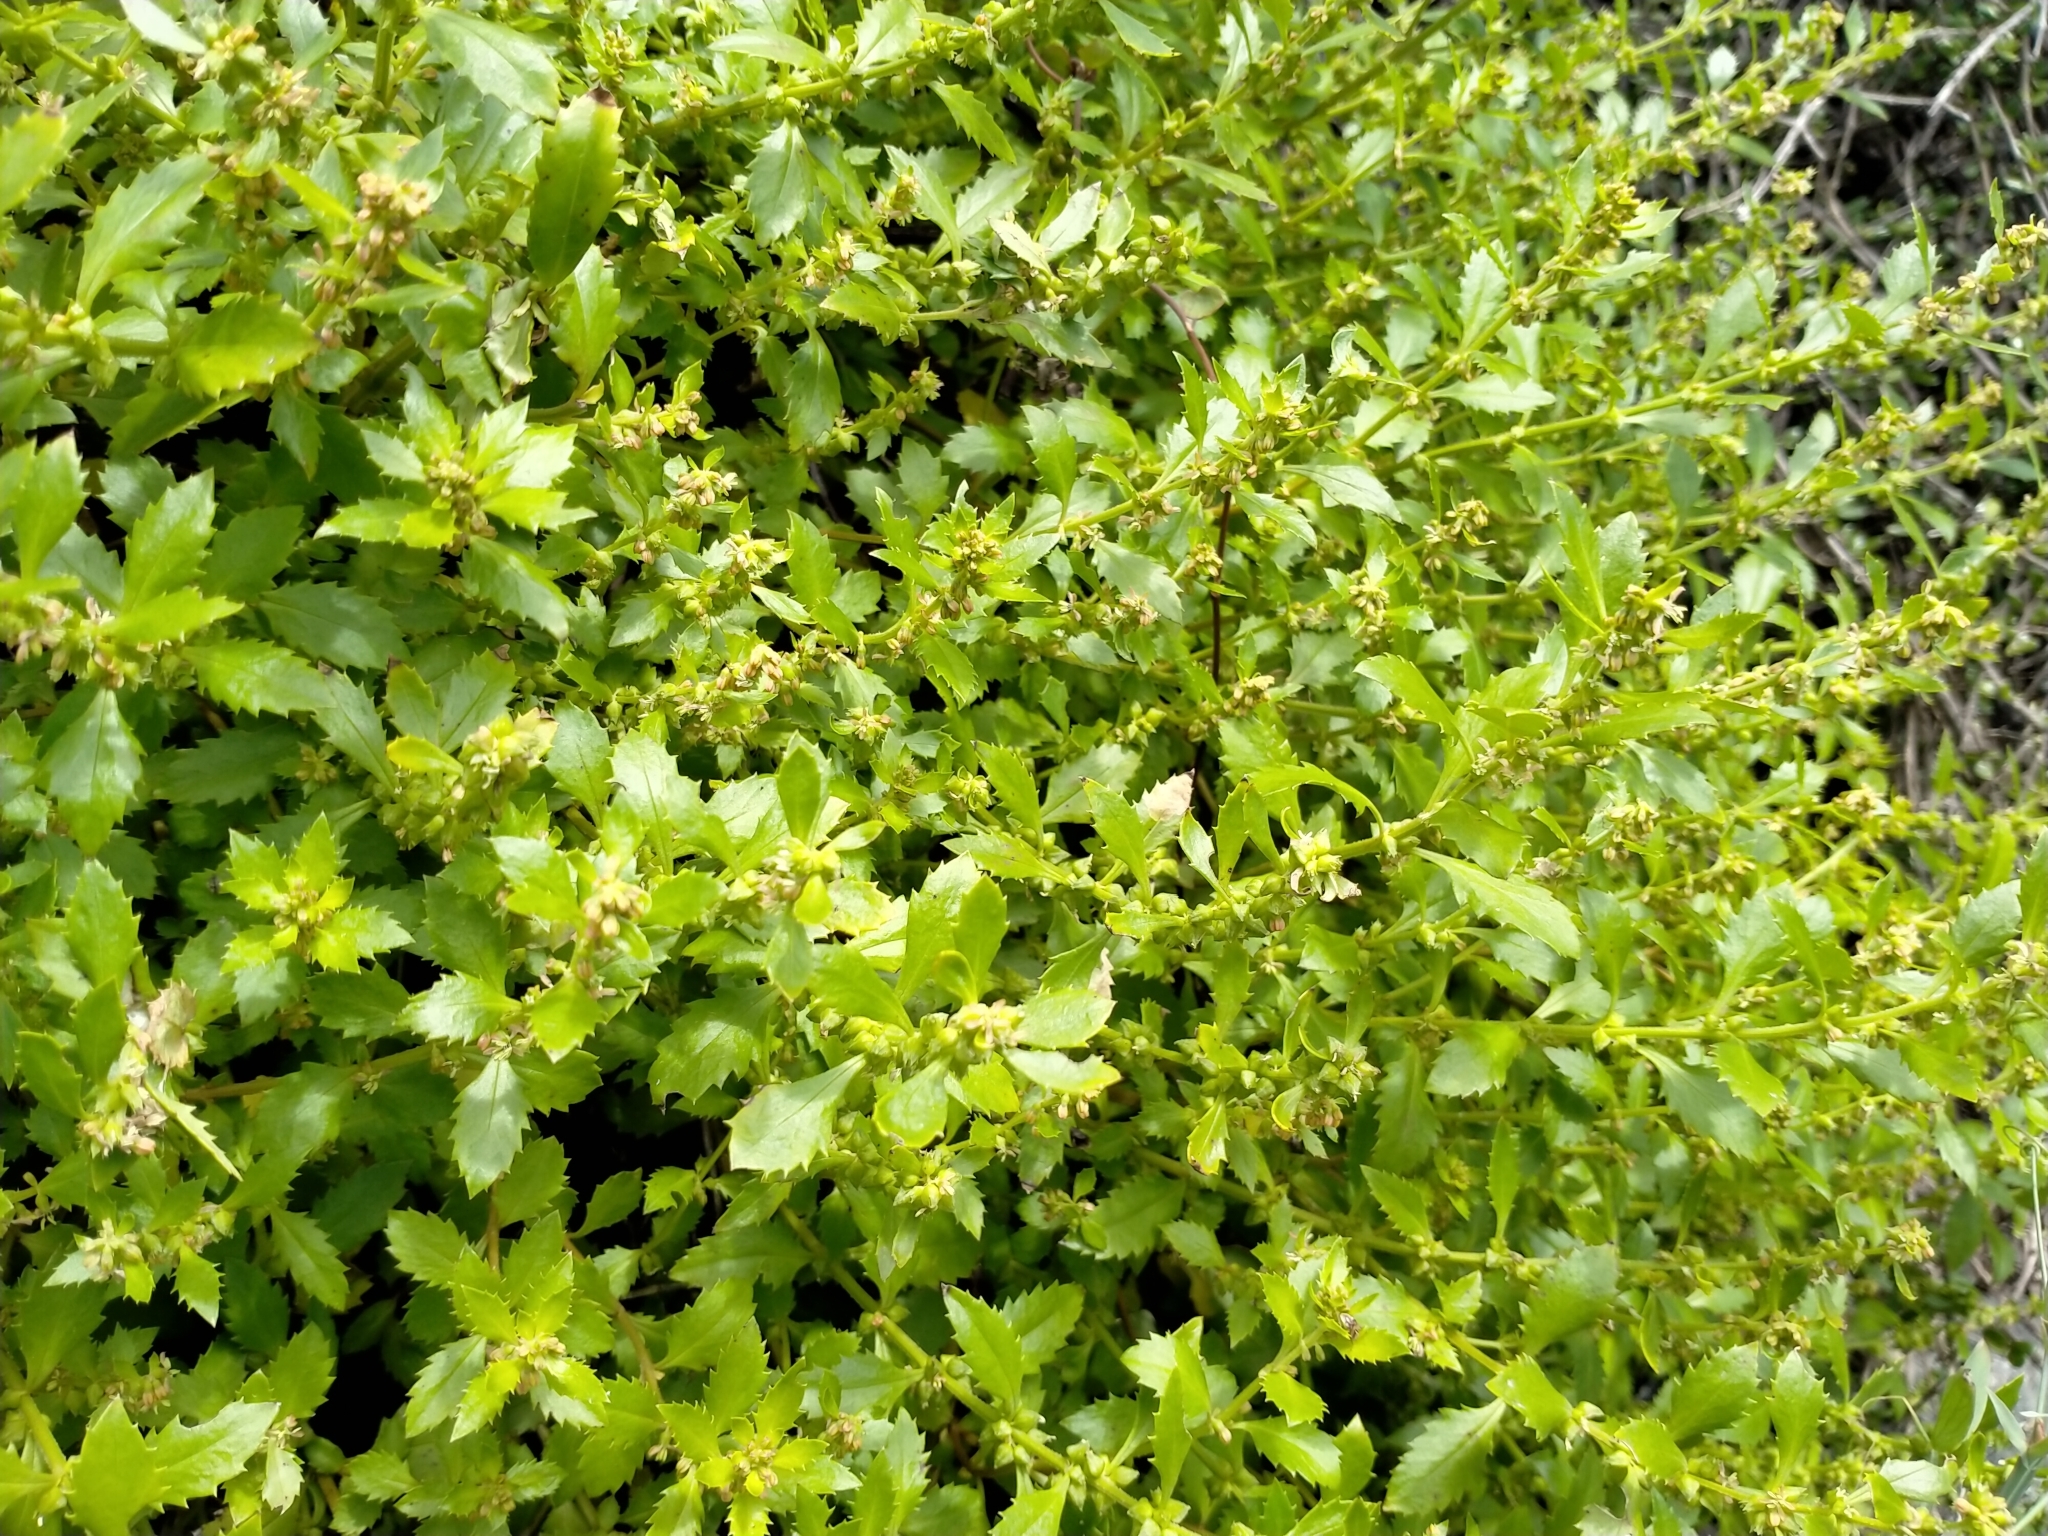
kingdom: Plantae
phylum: Tracheophyta
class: Magnoliopsida
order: Saxifragales
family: Haloragaceae
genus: Haloragis
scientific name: Haloragis erecta
